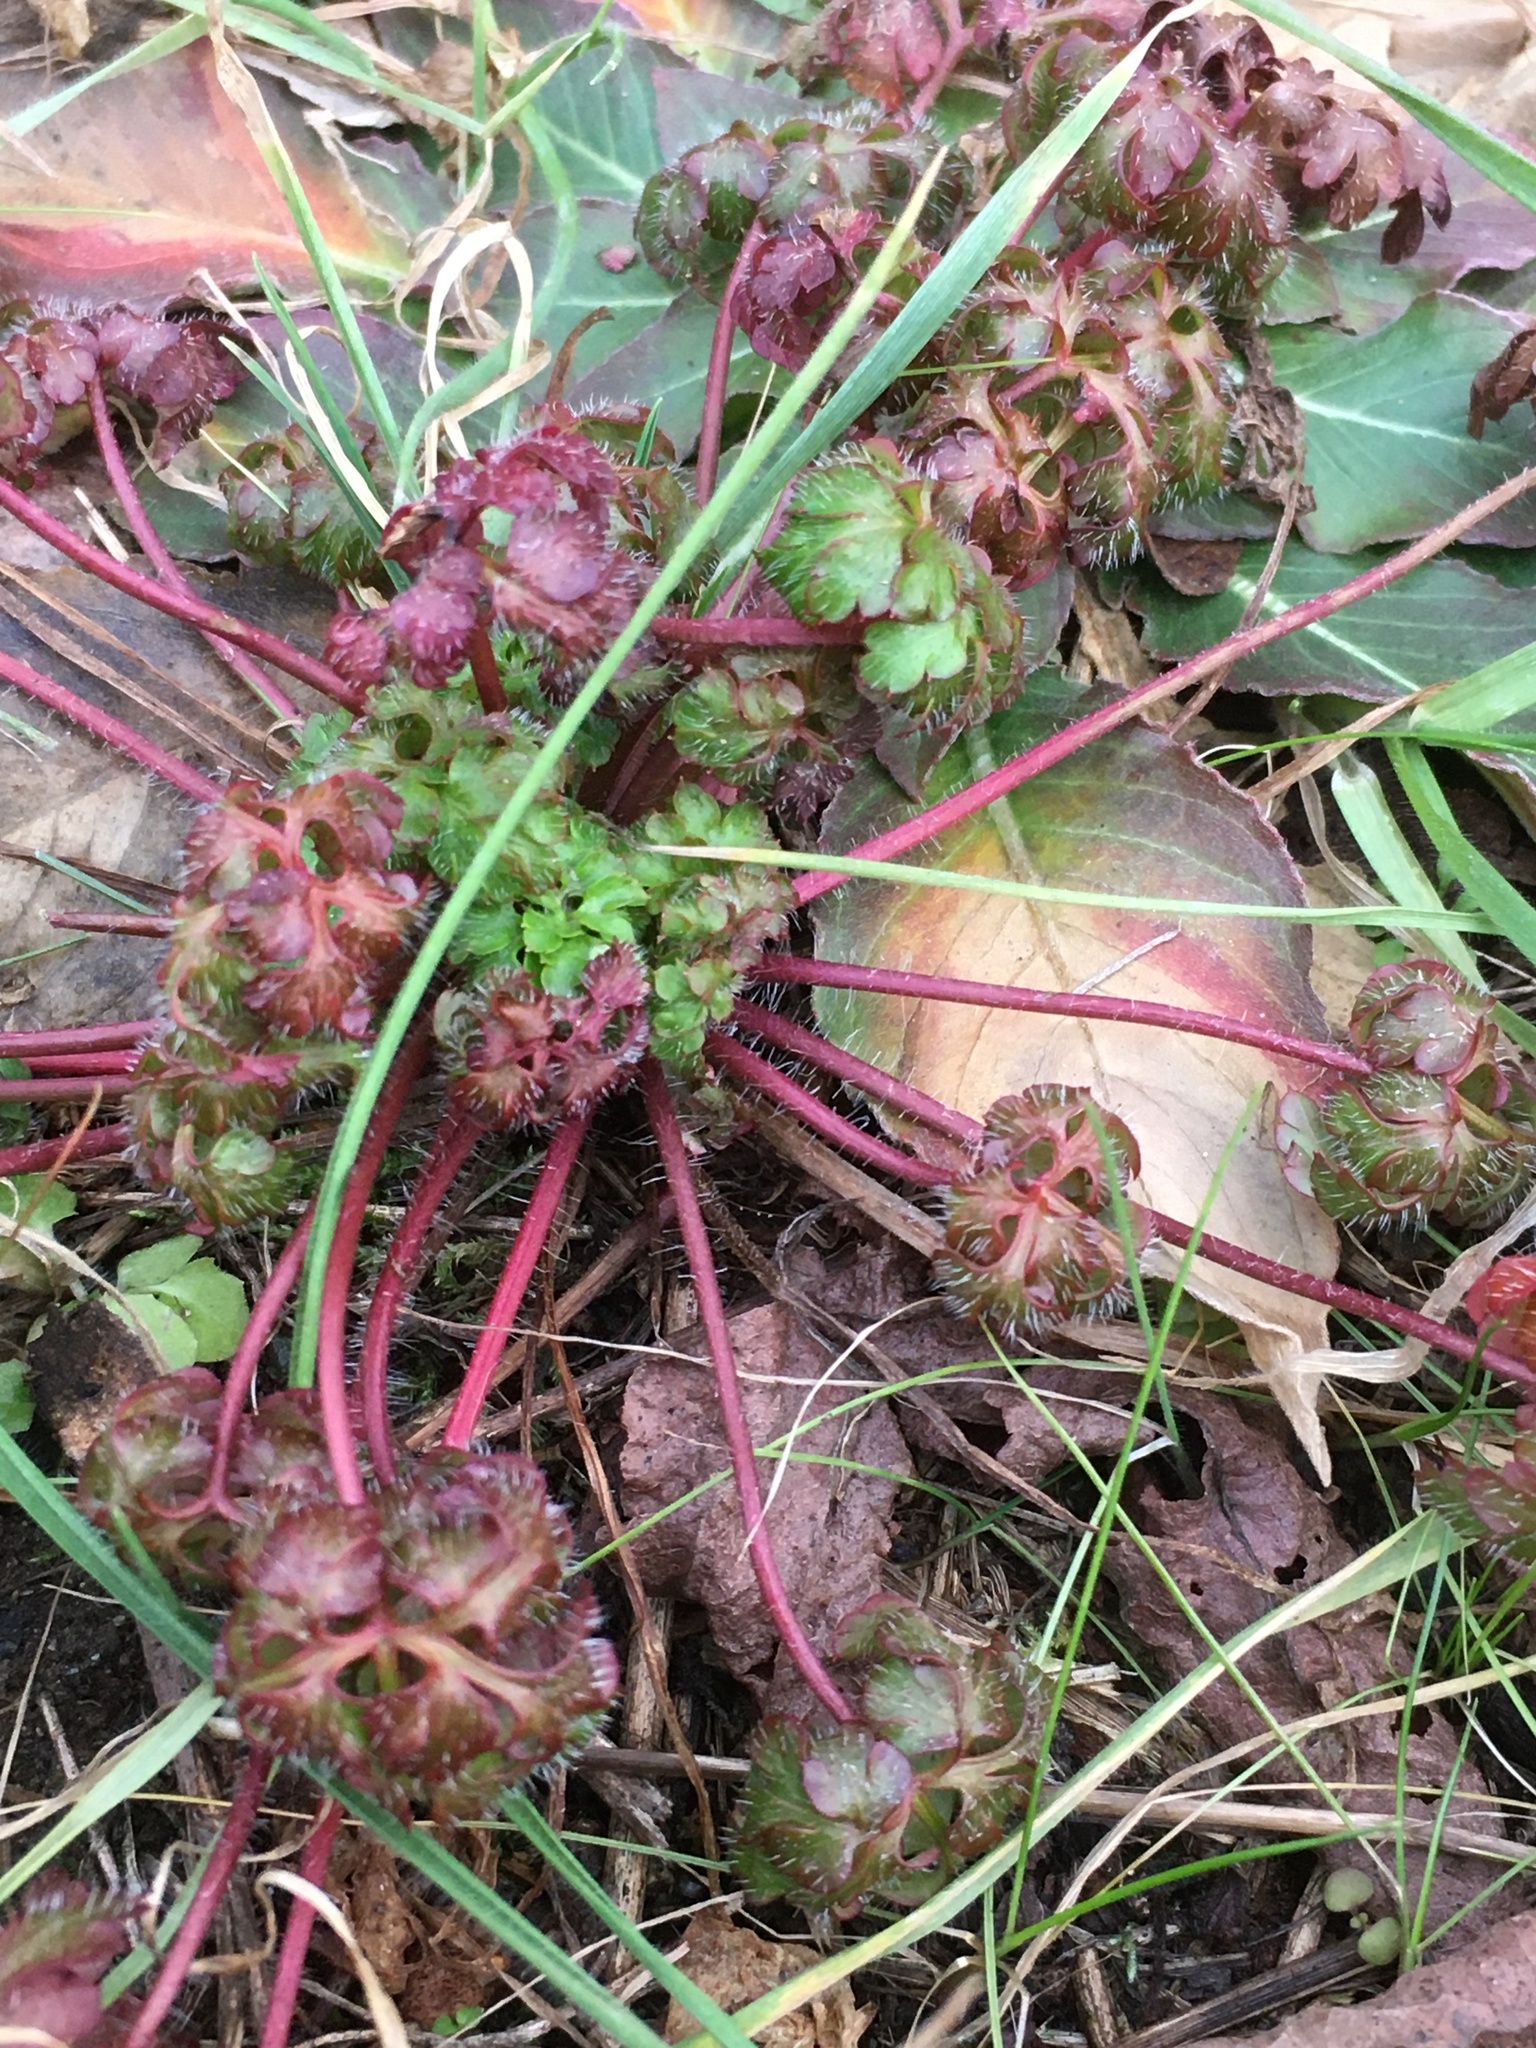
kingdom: Plantae
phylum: Tracheophyta
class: Magnoliopsida
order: Geraniales
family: Geraniaceae
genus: Geranium
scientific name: Geranium robertianum
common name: Herb-robert
